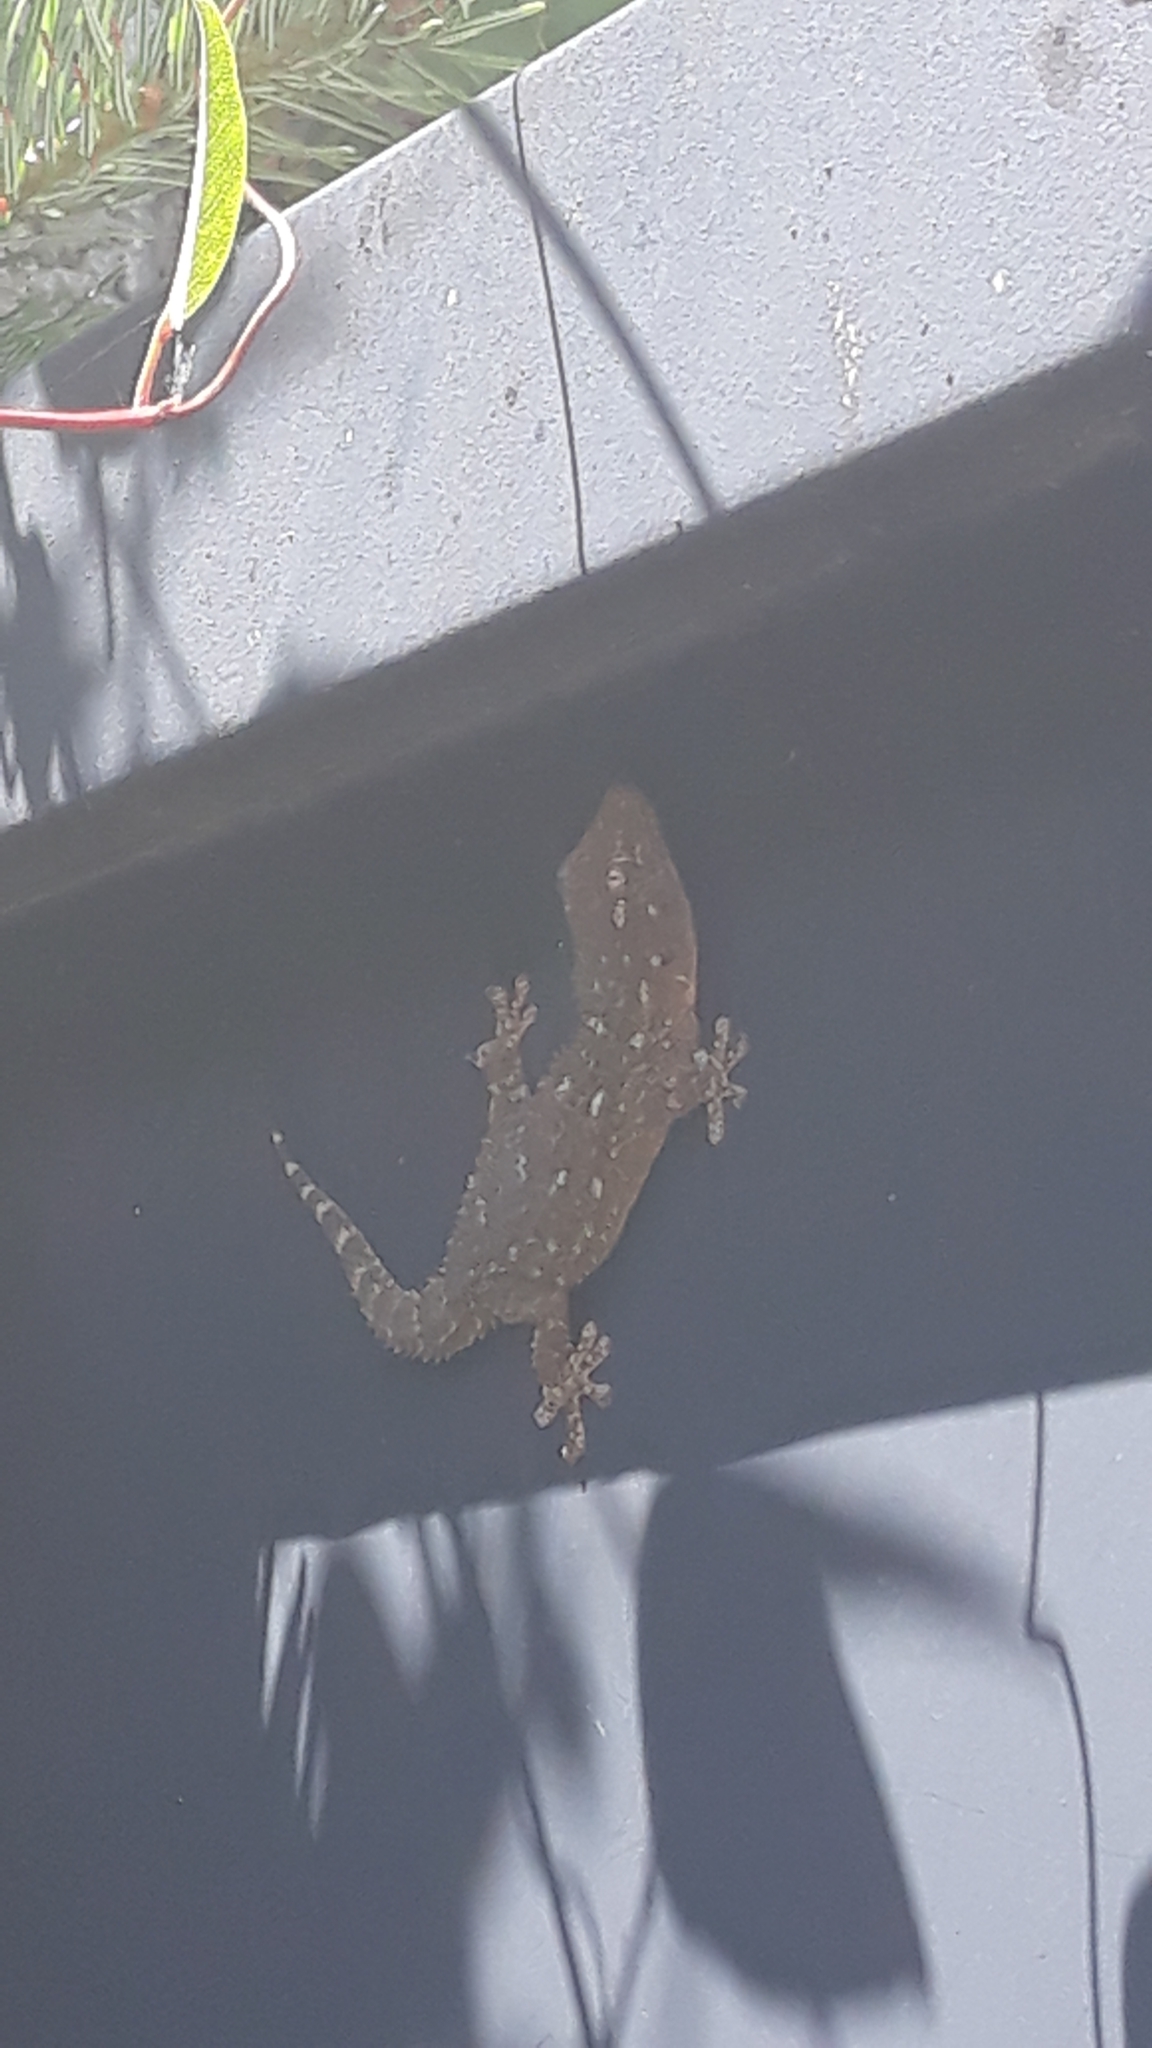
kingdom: Animalia
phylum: Chordata
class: Squamata
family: Phyllodactylidae
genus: Tarentola
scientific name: Tarentola mauritanica
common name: Moorish gecko
